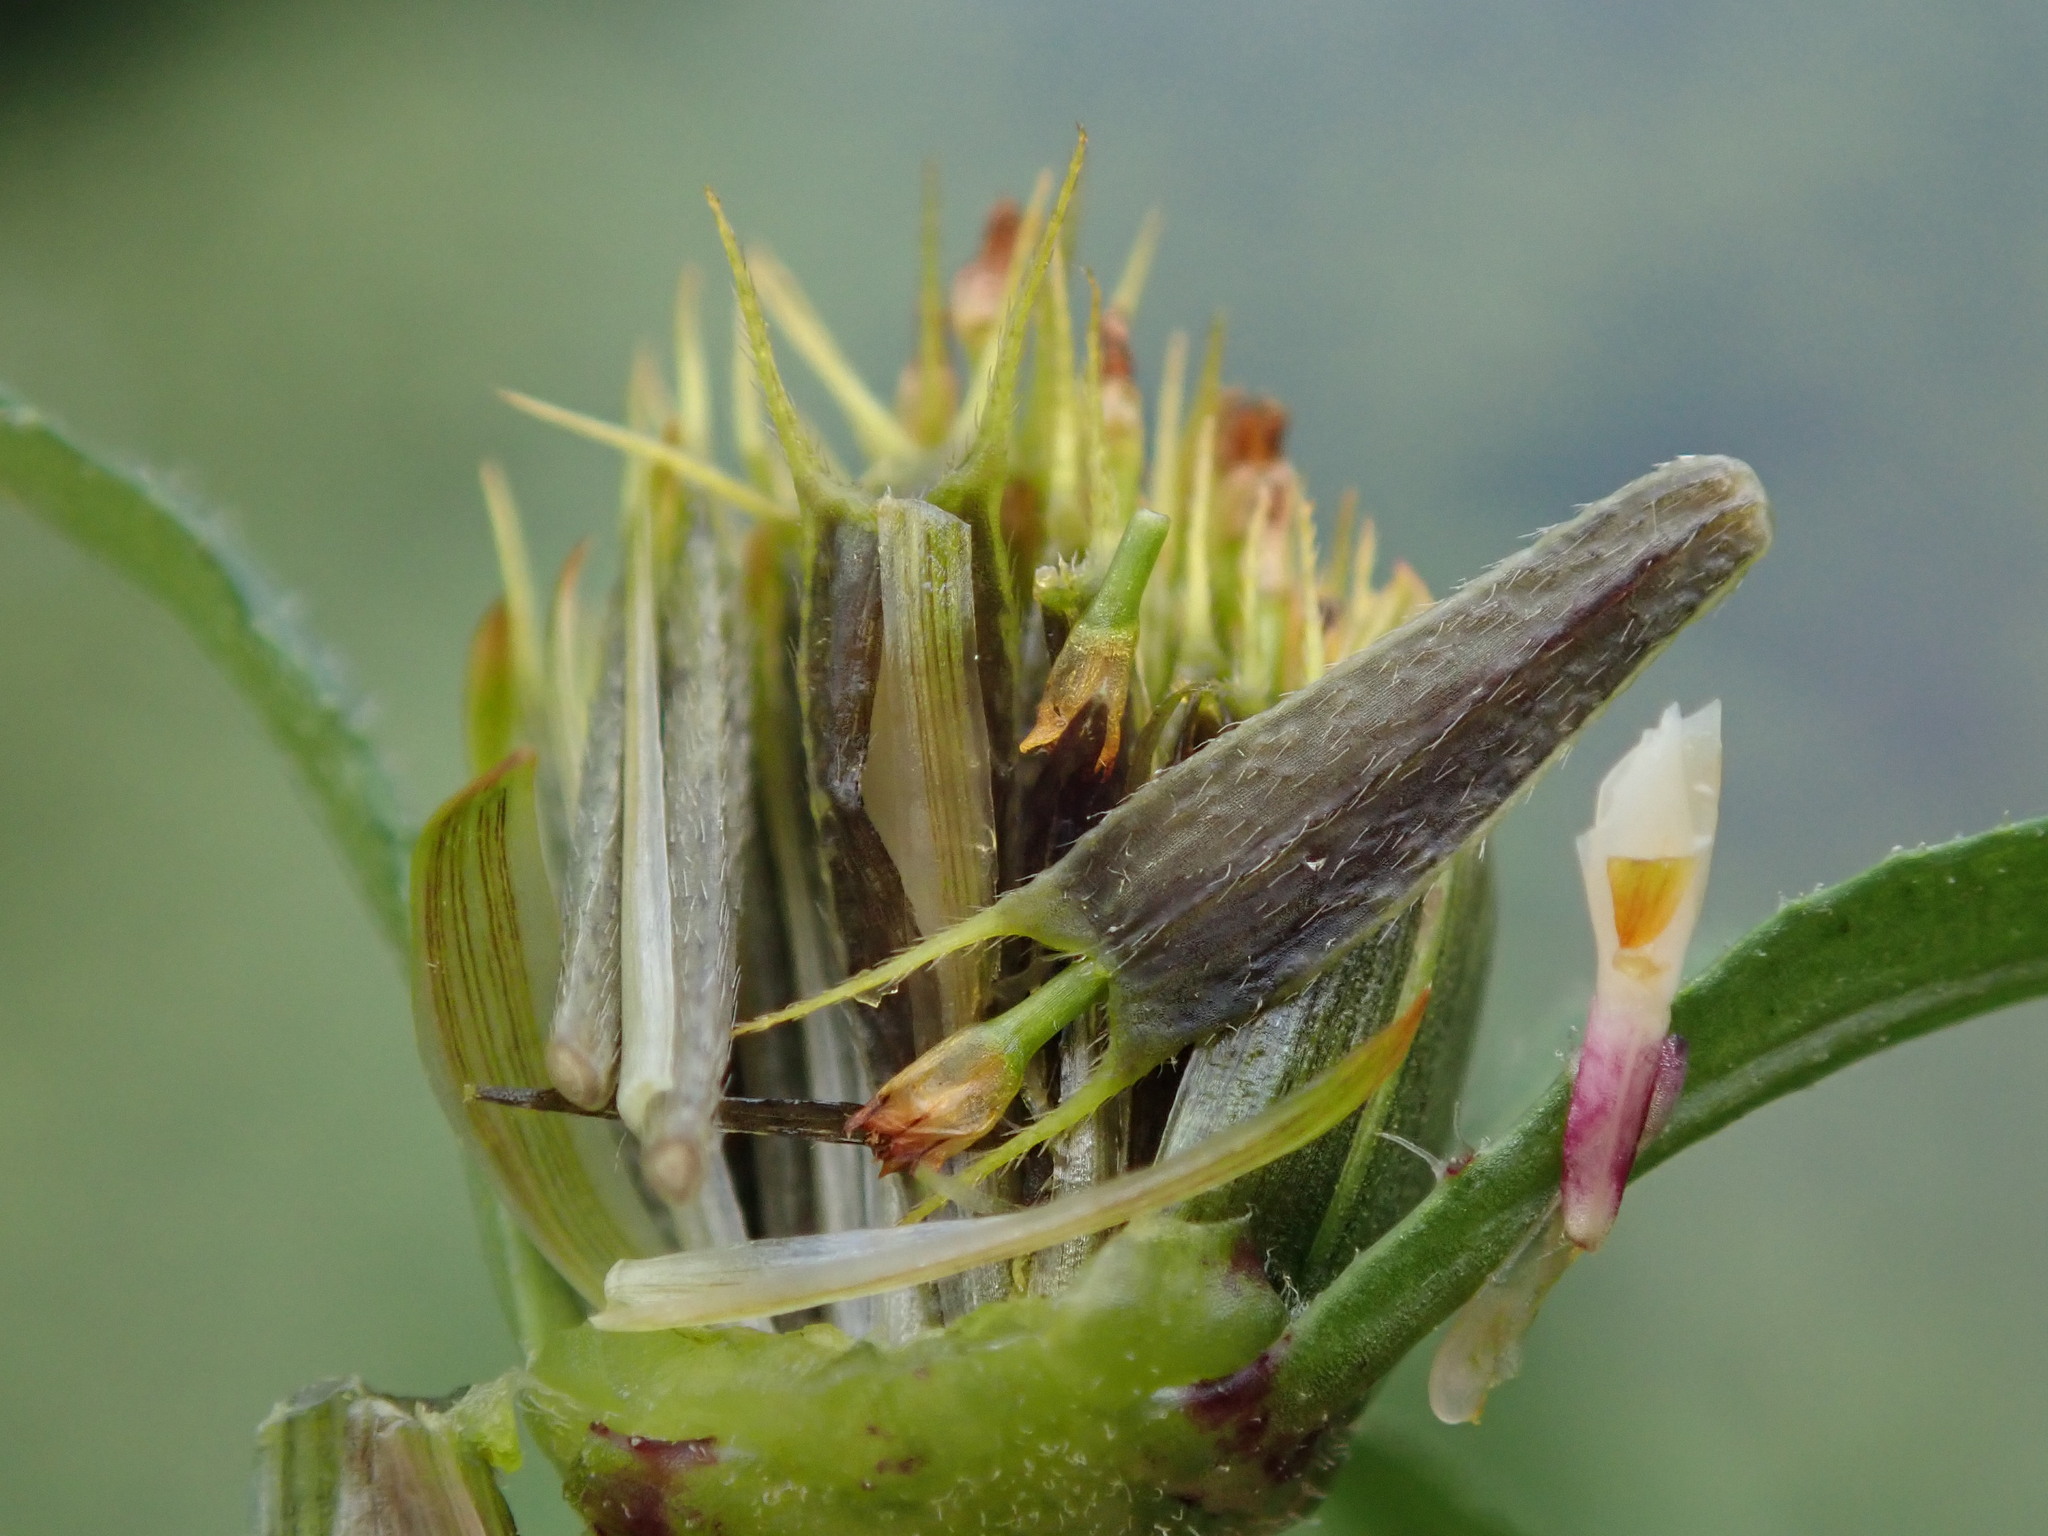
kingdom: Plantae
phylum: Tracheophyta
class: Magnoliopsida
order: Asterales
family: Asteraceae
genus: Bidens
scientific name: Bidens frondosa
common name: Beggarticks
